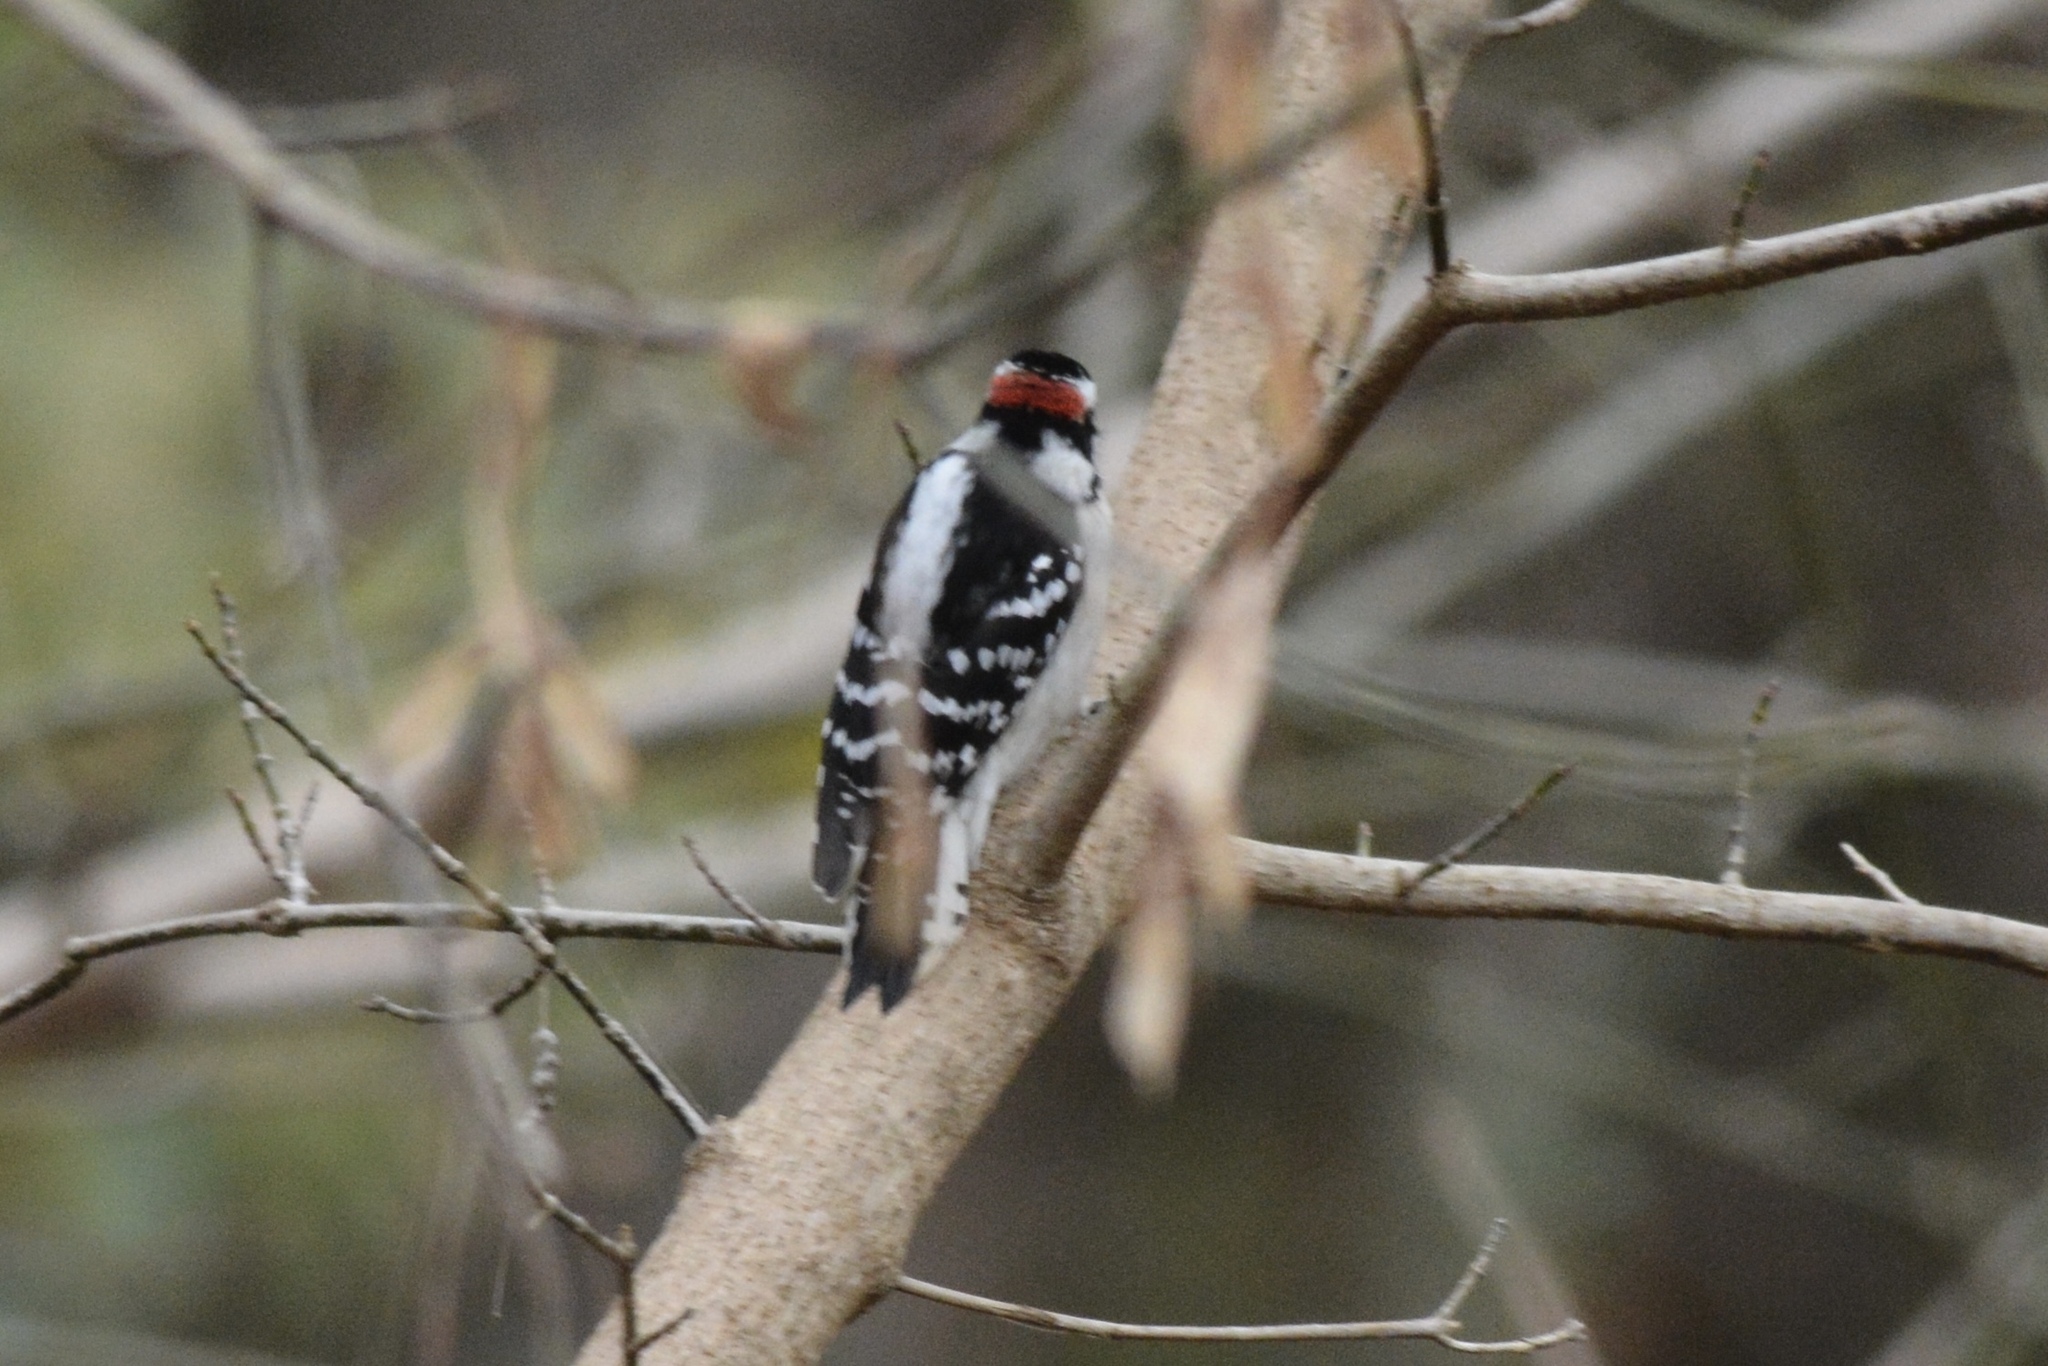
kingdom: Animalia
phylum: Chordata
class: Aves
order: Piciformes
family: Picidae
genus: Dryobates
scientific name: Dryobates pubescens
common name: Downy woodpecker
